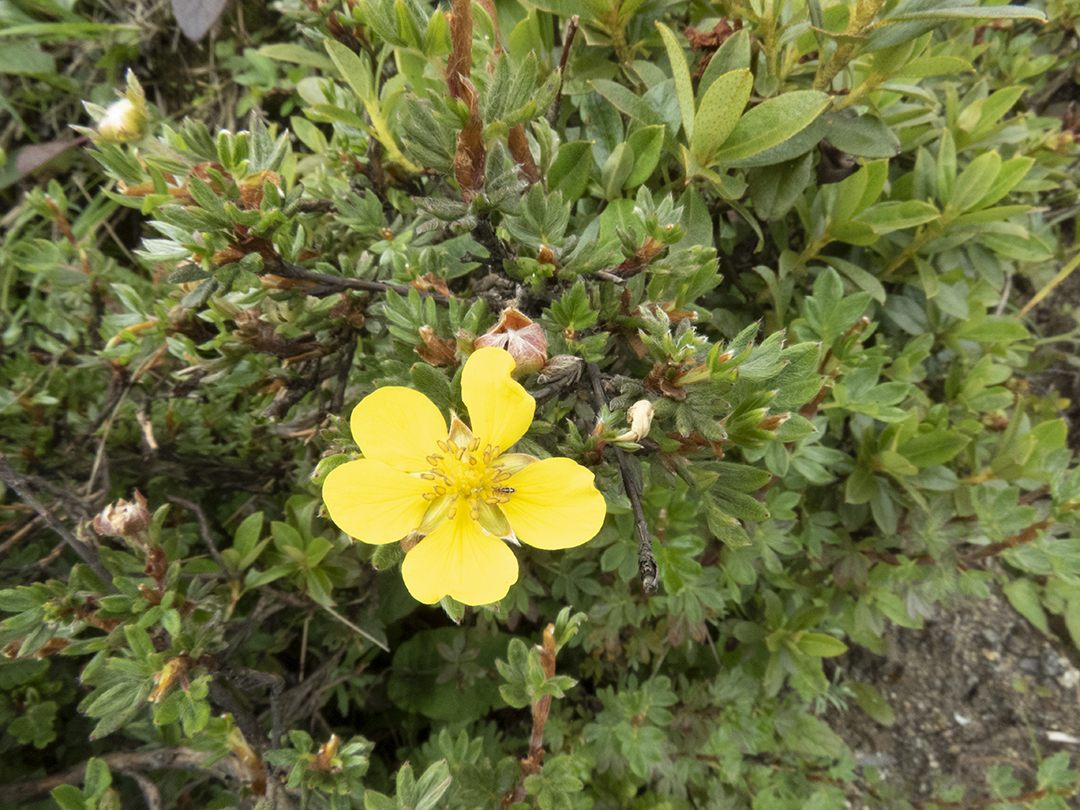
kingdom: Plantae
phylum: Tracheophyta
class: Magnoliopsida
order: Rosales
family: Rosaceae
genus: Dasiphora
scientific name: Dasiphora fruticosa
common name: Shrubby cinquefoil
